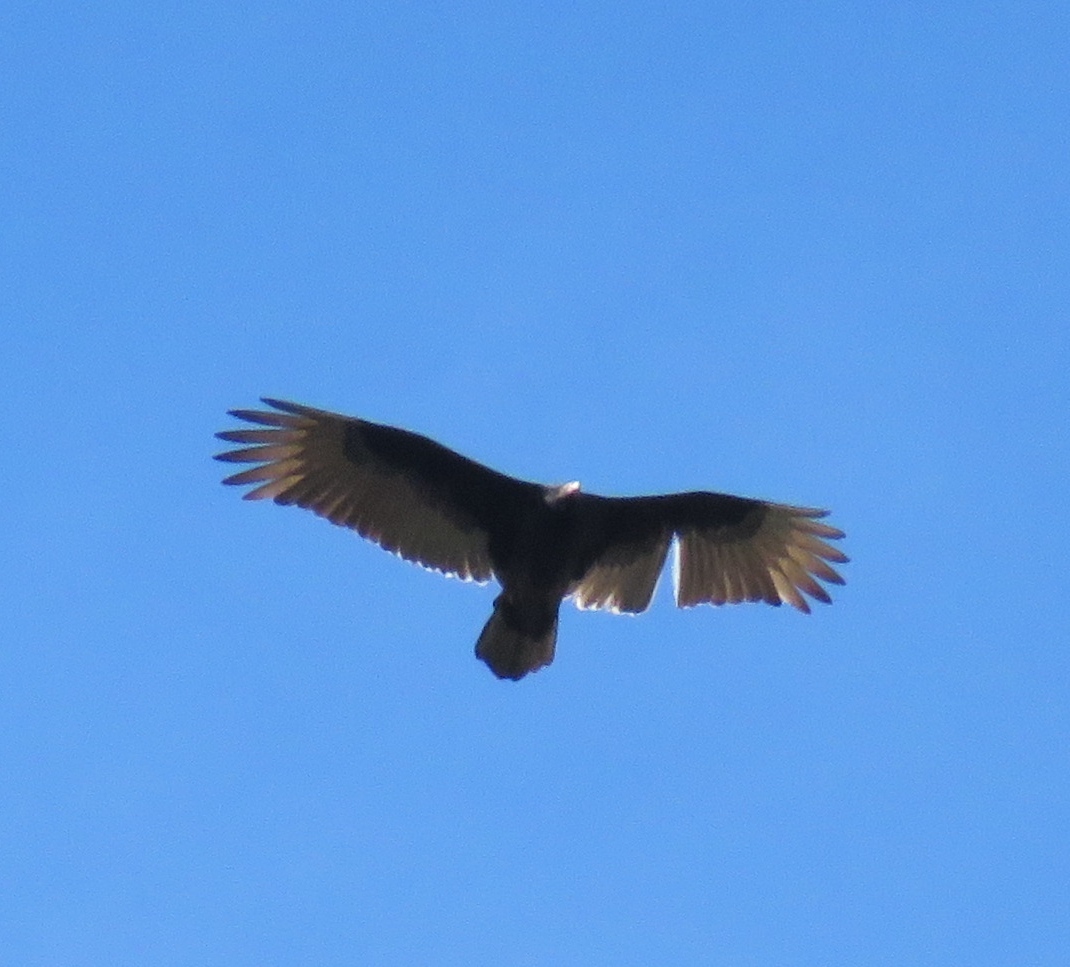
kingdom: Animalia
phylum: Chordata
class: Aves
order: Accipitriformes
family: Cathartidae
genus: Cathartes
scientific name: Cathartes aura
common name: Turkey vulture
